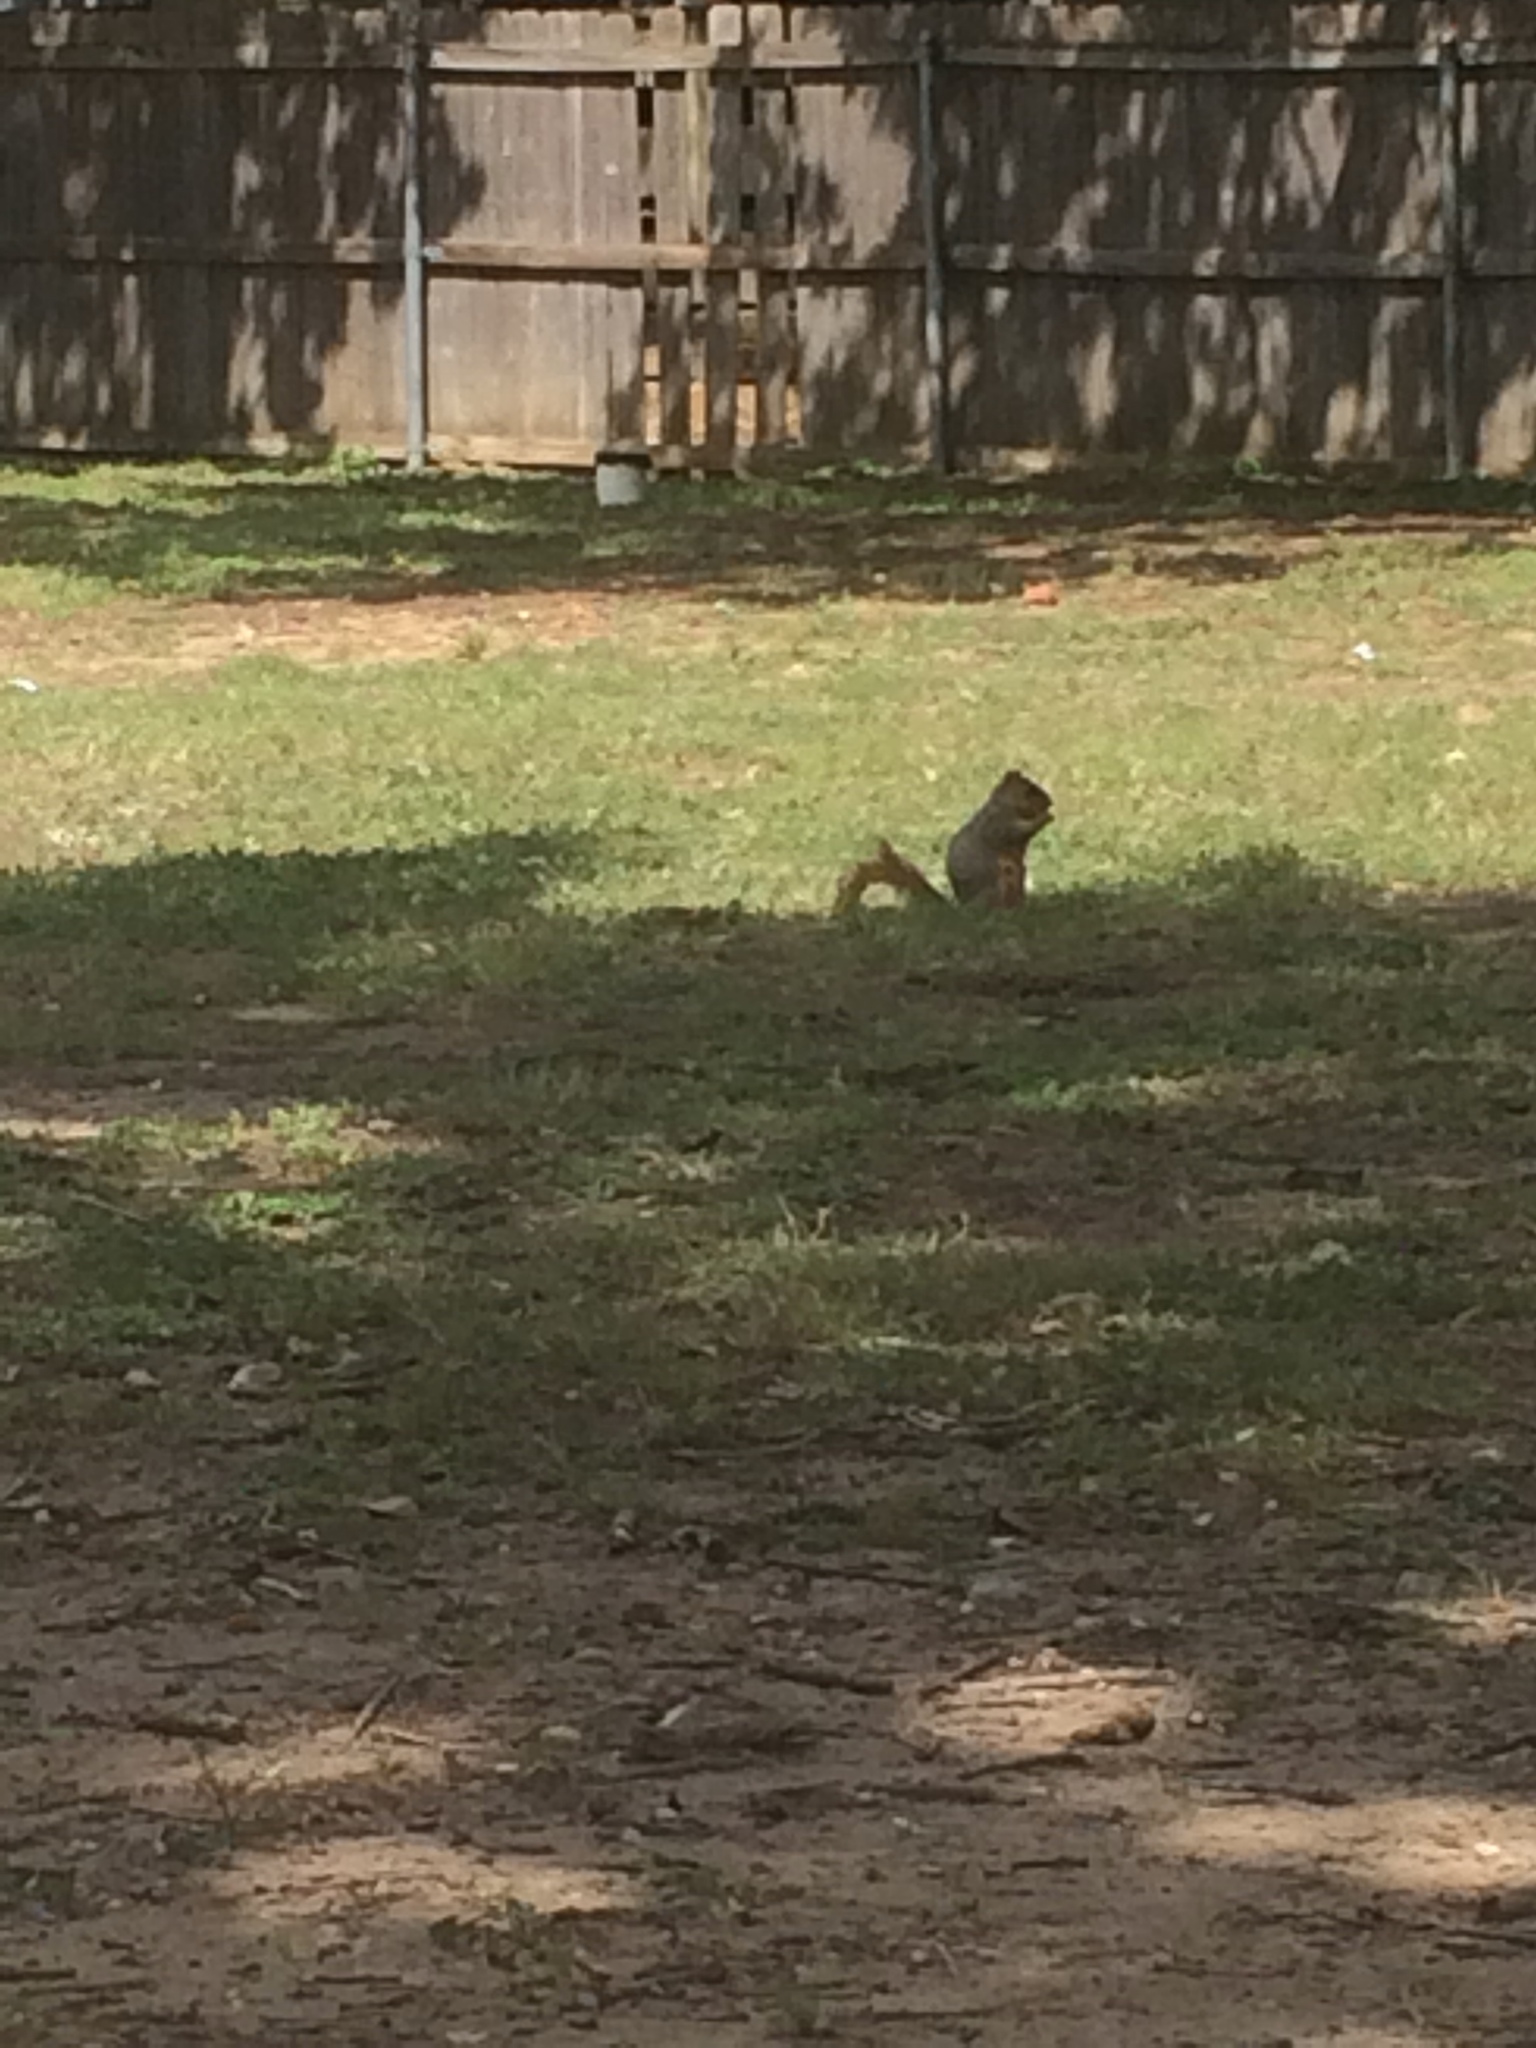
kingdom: Animalia
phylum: Chordata
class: Mammalia
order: Rodentia
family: Sciuridae
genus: Sciurus
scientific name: Sciurus niger
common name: Fox squirrel
